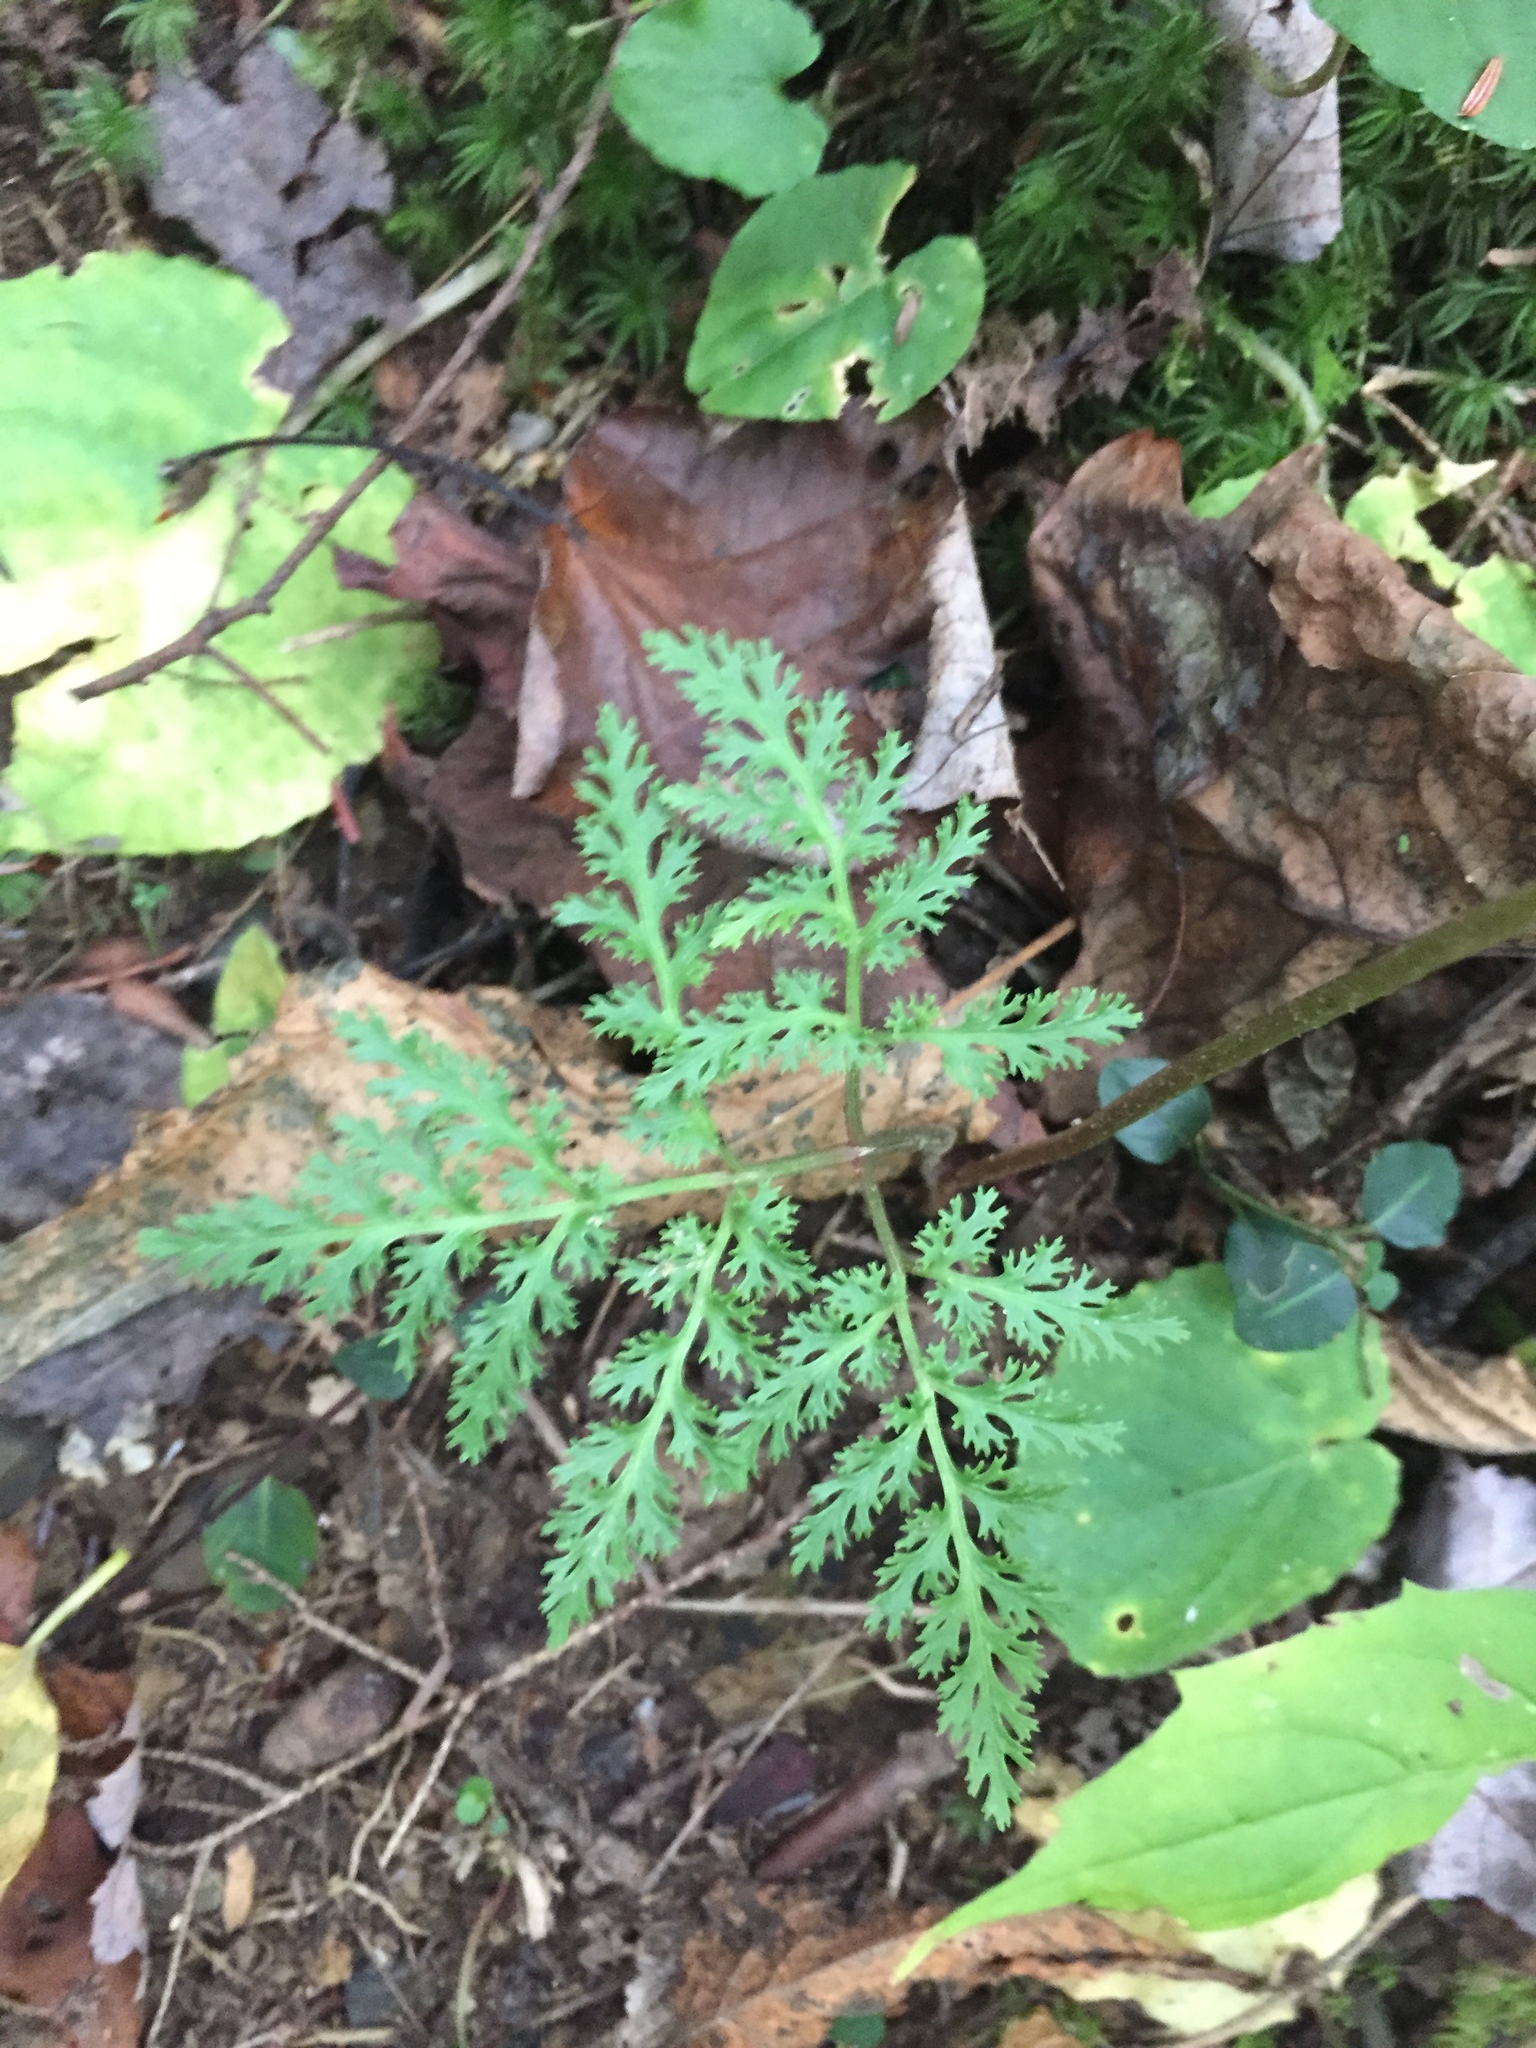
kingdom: Plantae
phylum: Tracheophyta
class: Polypodiopsida
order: Ophioglossales
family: Ophioglossaceae
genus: Sceptridium
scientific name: Sceptridium dissectum
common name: Cut-leaved grapefern
